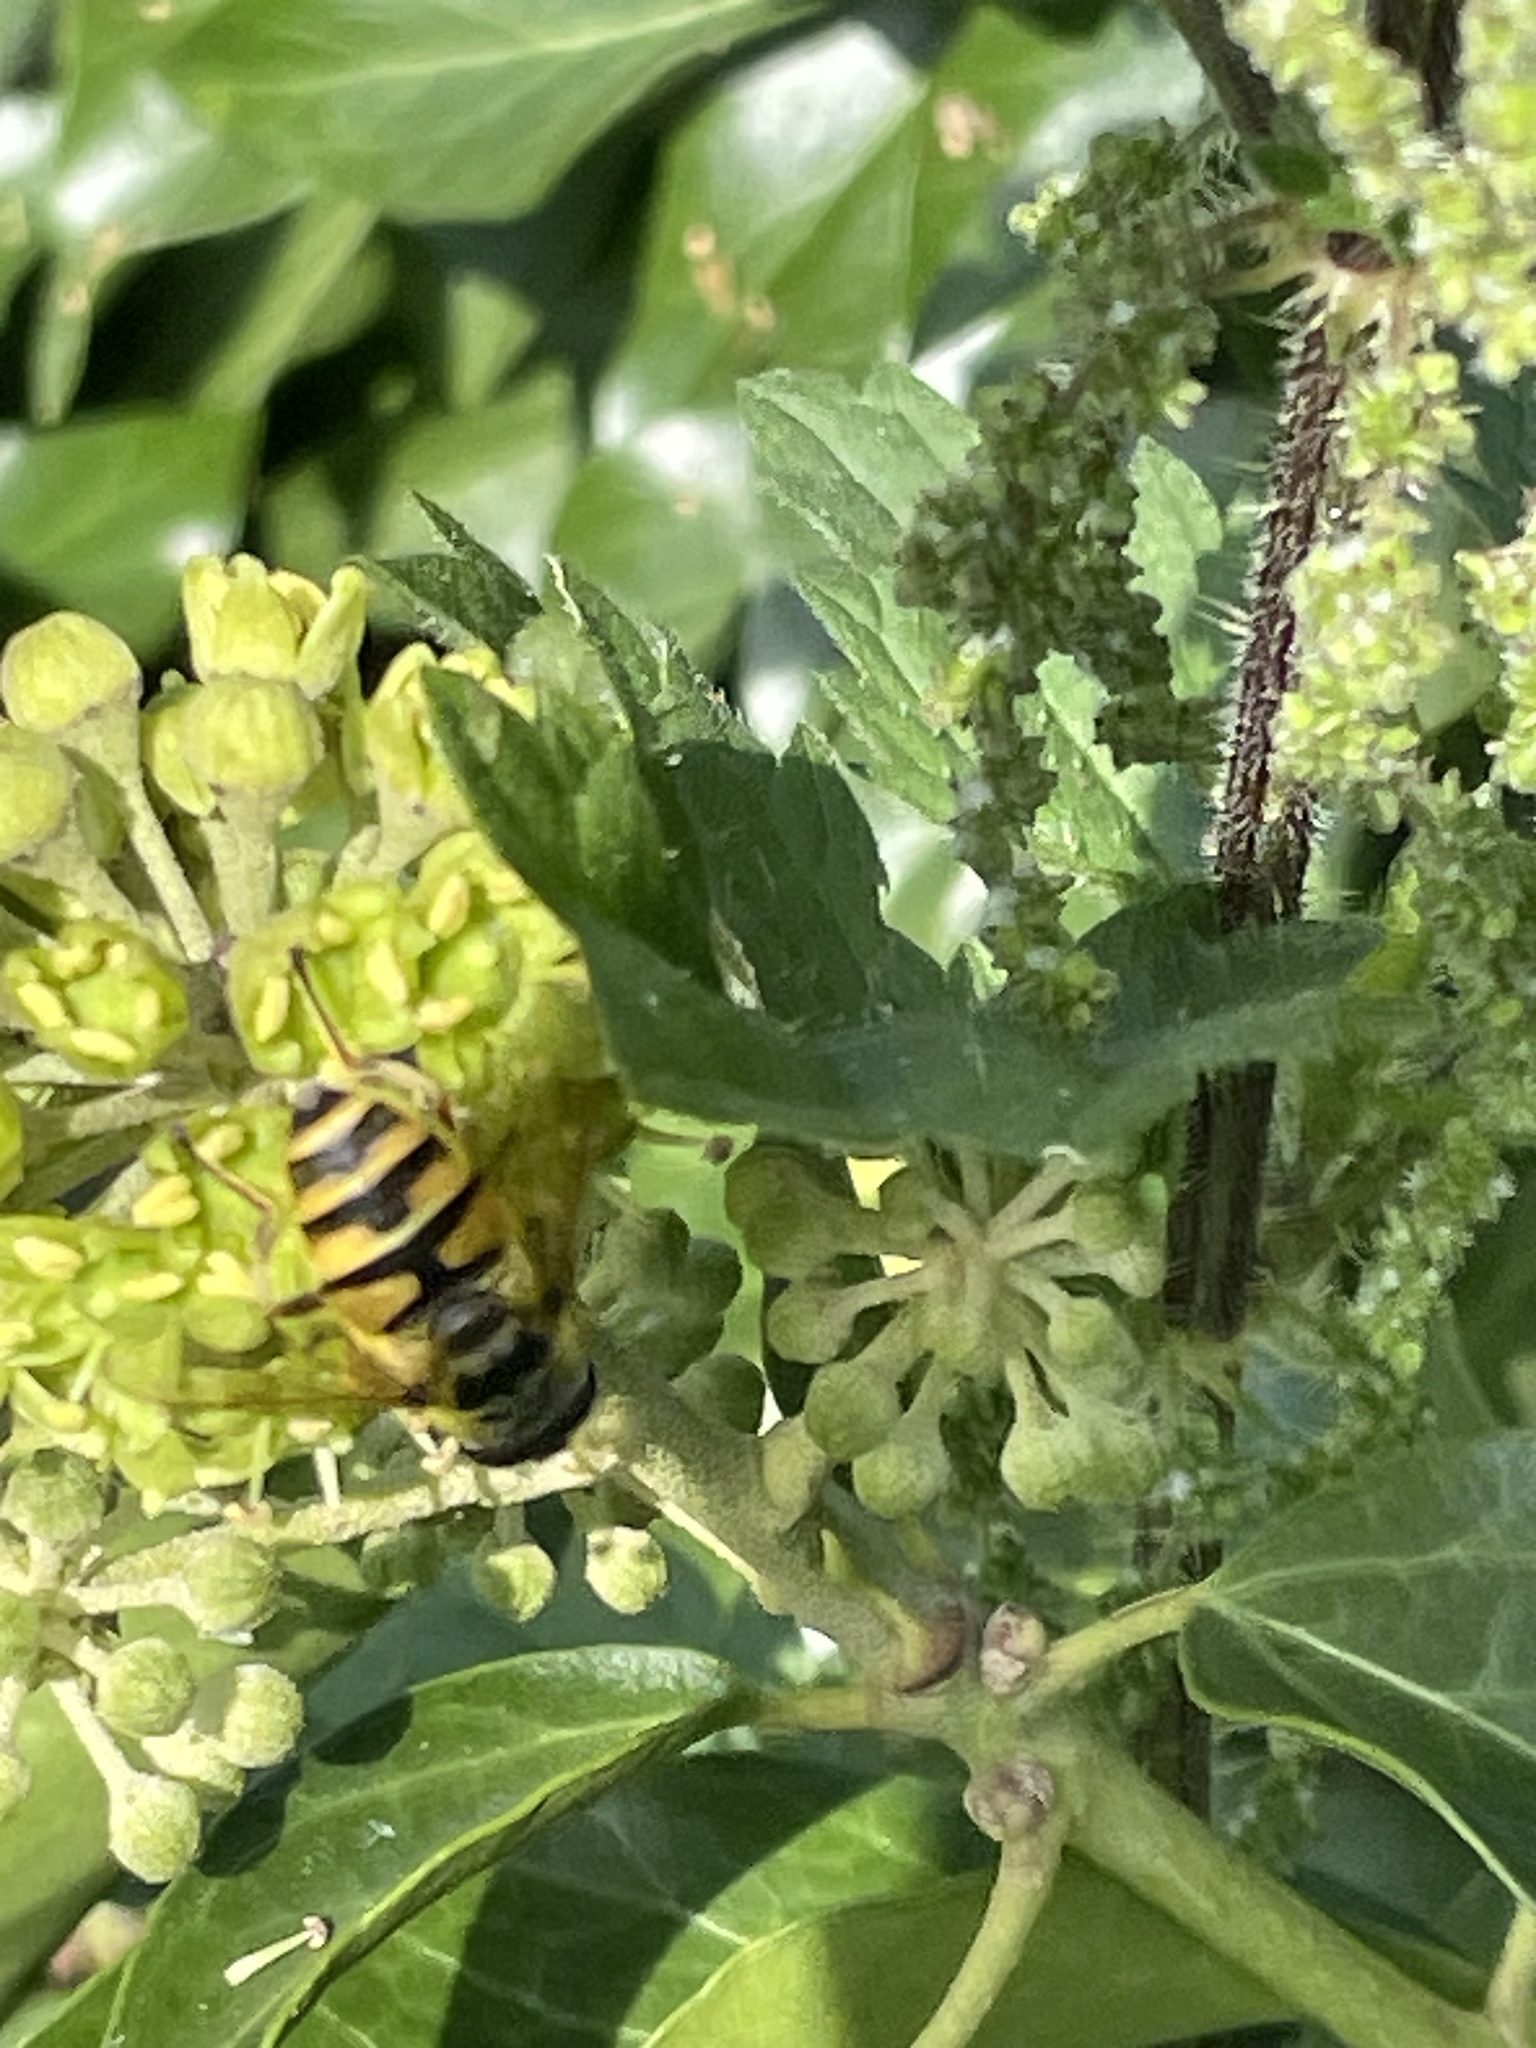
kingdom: Animalia
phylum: Arthropoda
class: Insecta
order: Diptera
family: Syrphidae
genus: Myathropa
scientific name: Myathropa florea
